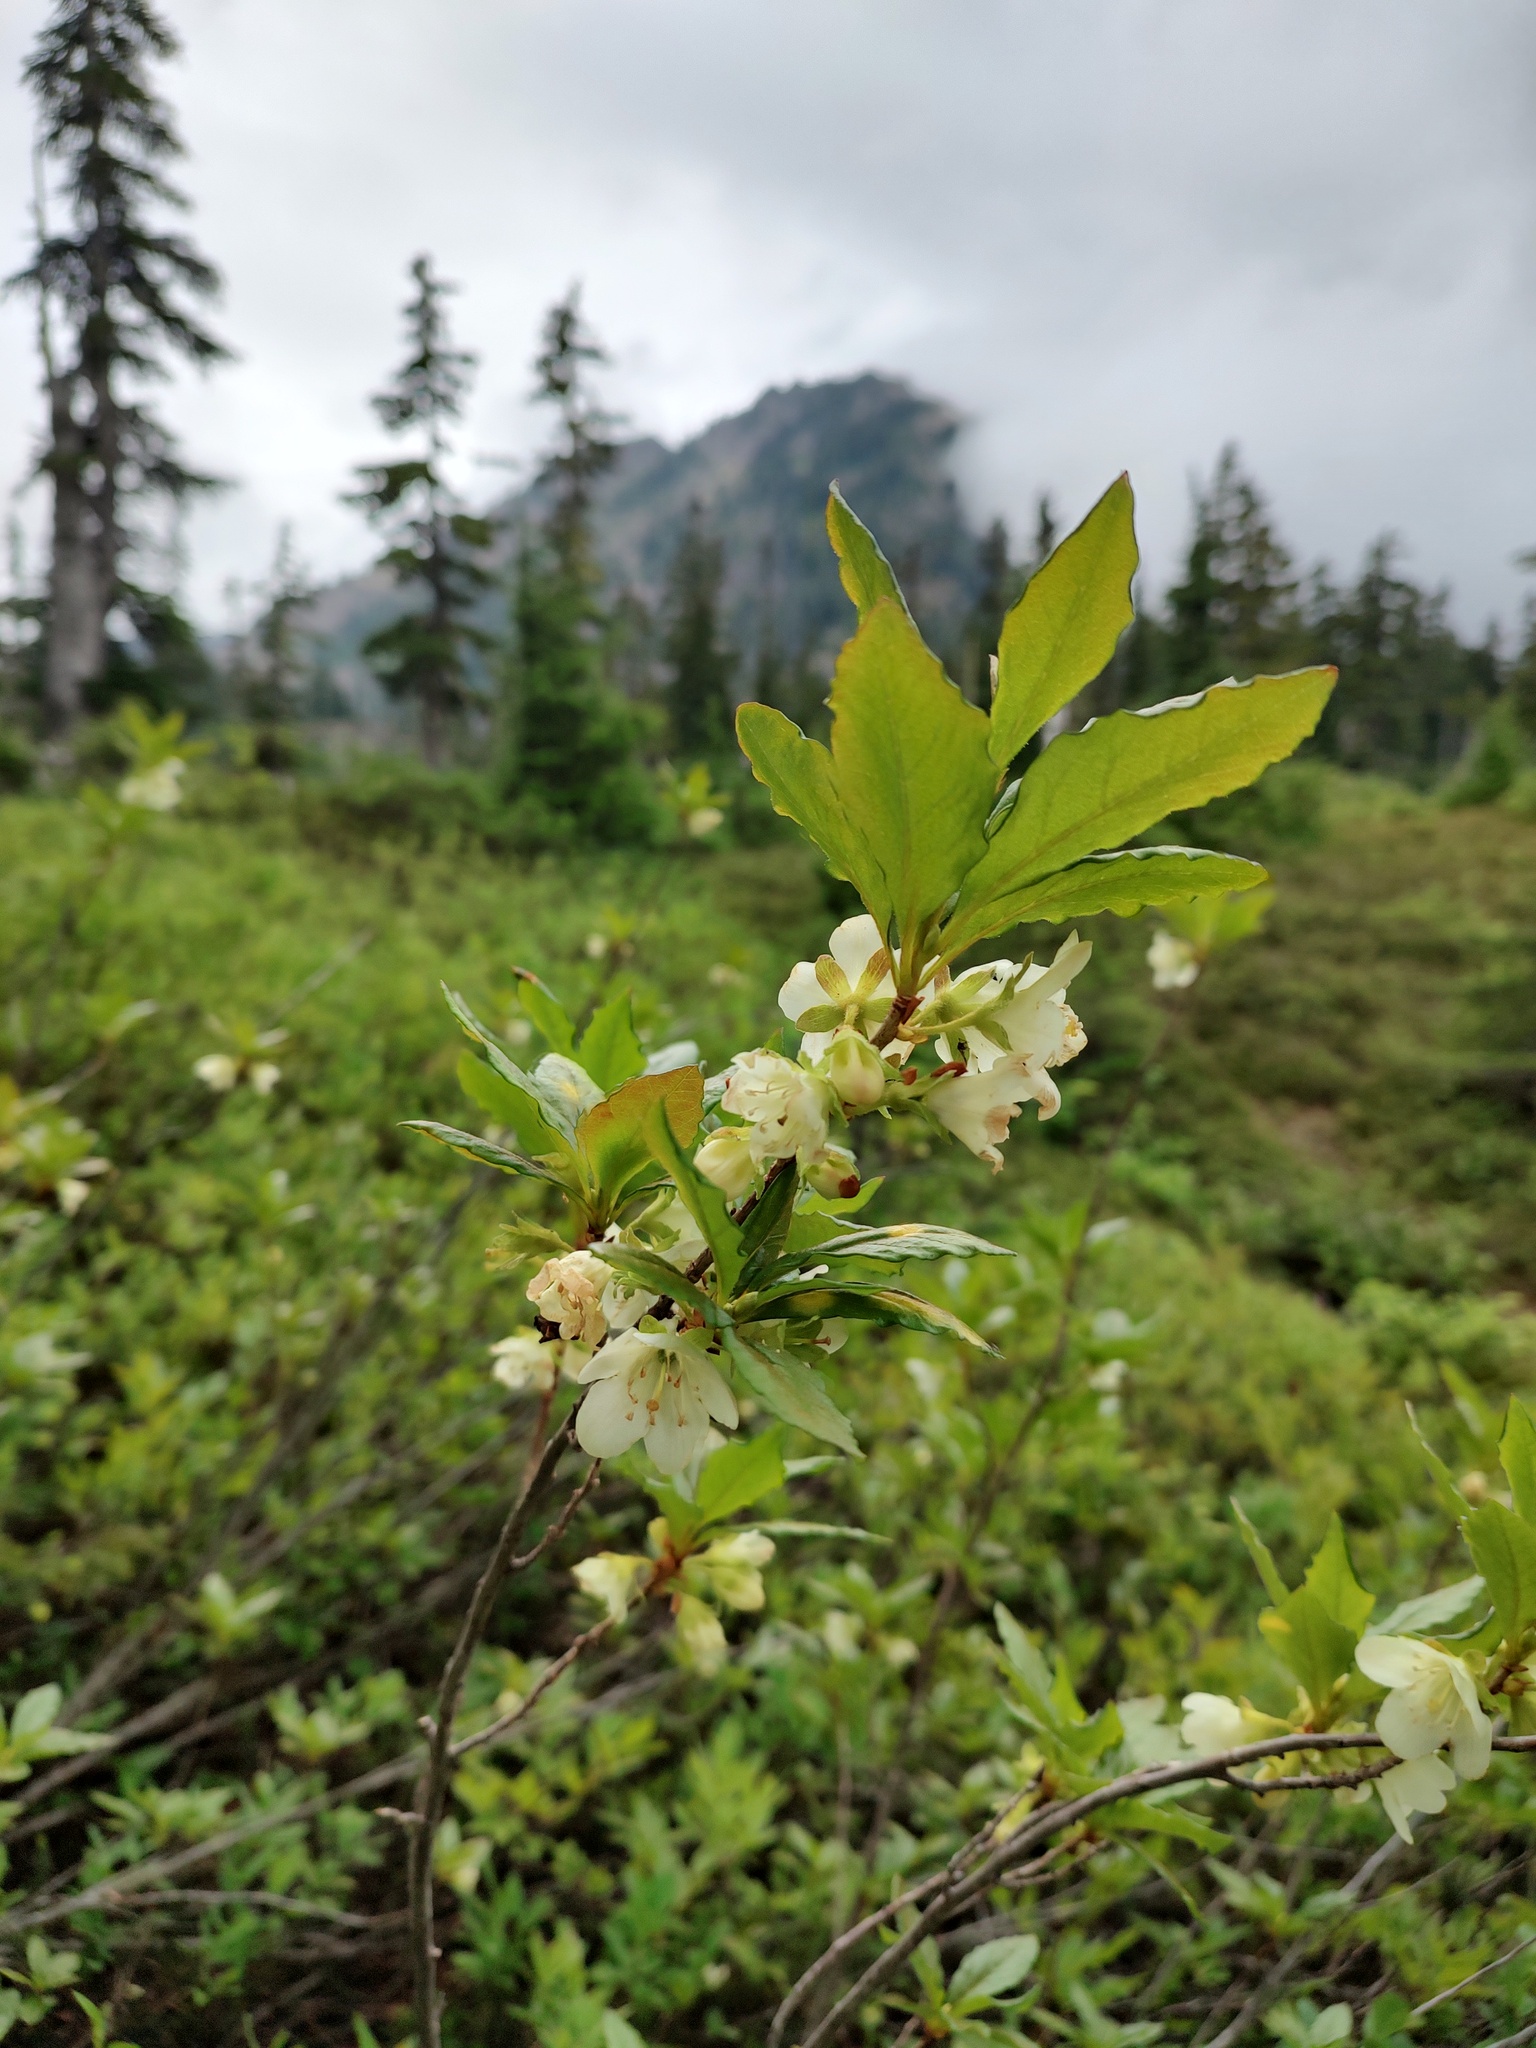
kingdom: Plantae
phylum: Tracheophyta
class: Magnoliopsida
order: Ericales
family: Ericaceae
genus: Rhododendron
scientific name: Rhododendron albiflorum
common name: White rhododendron
